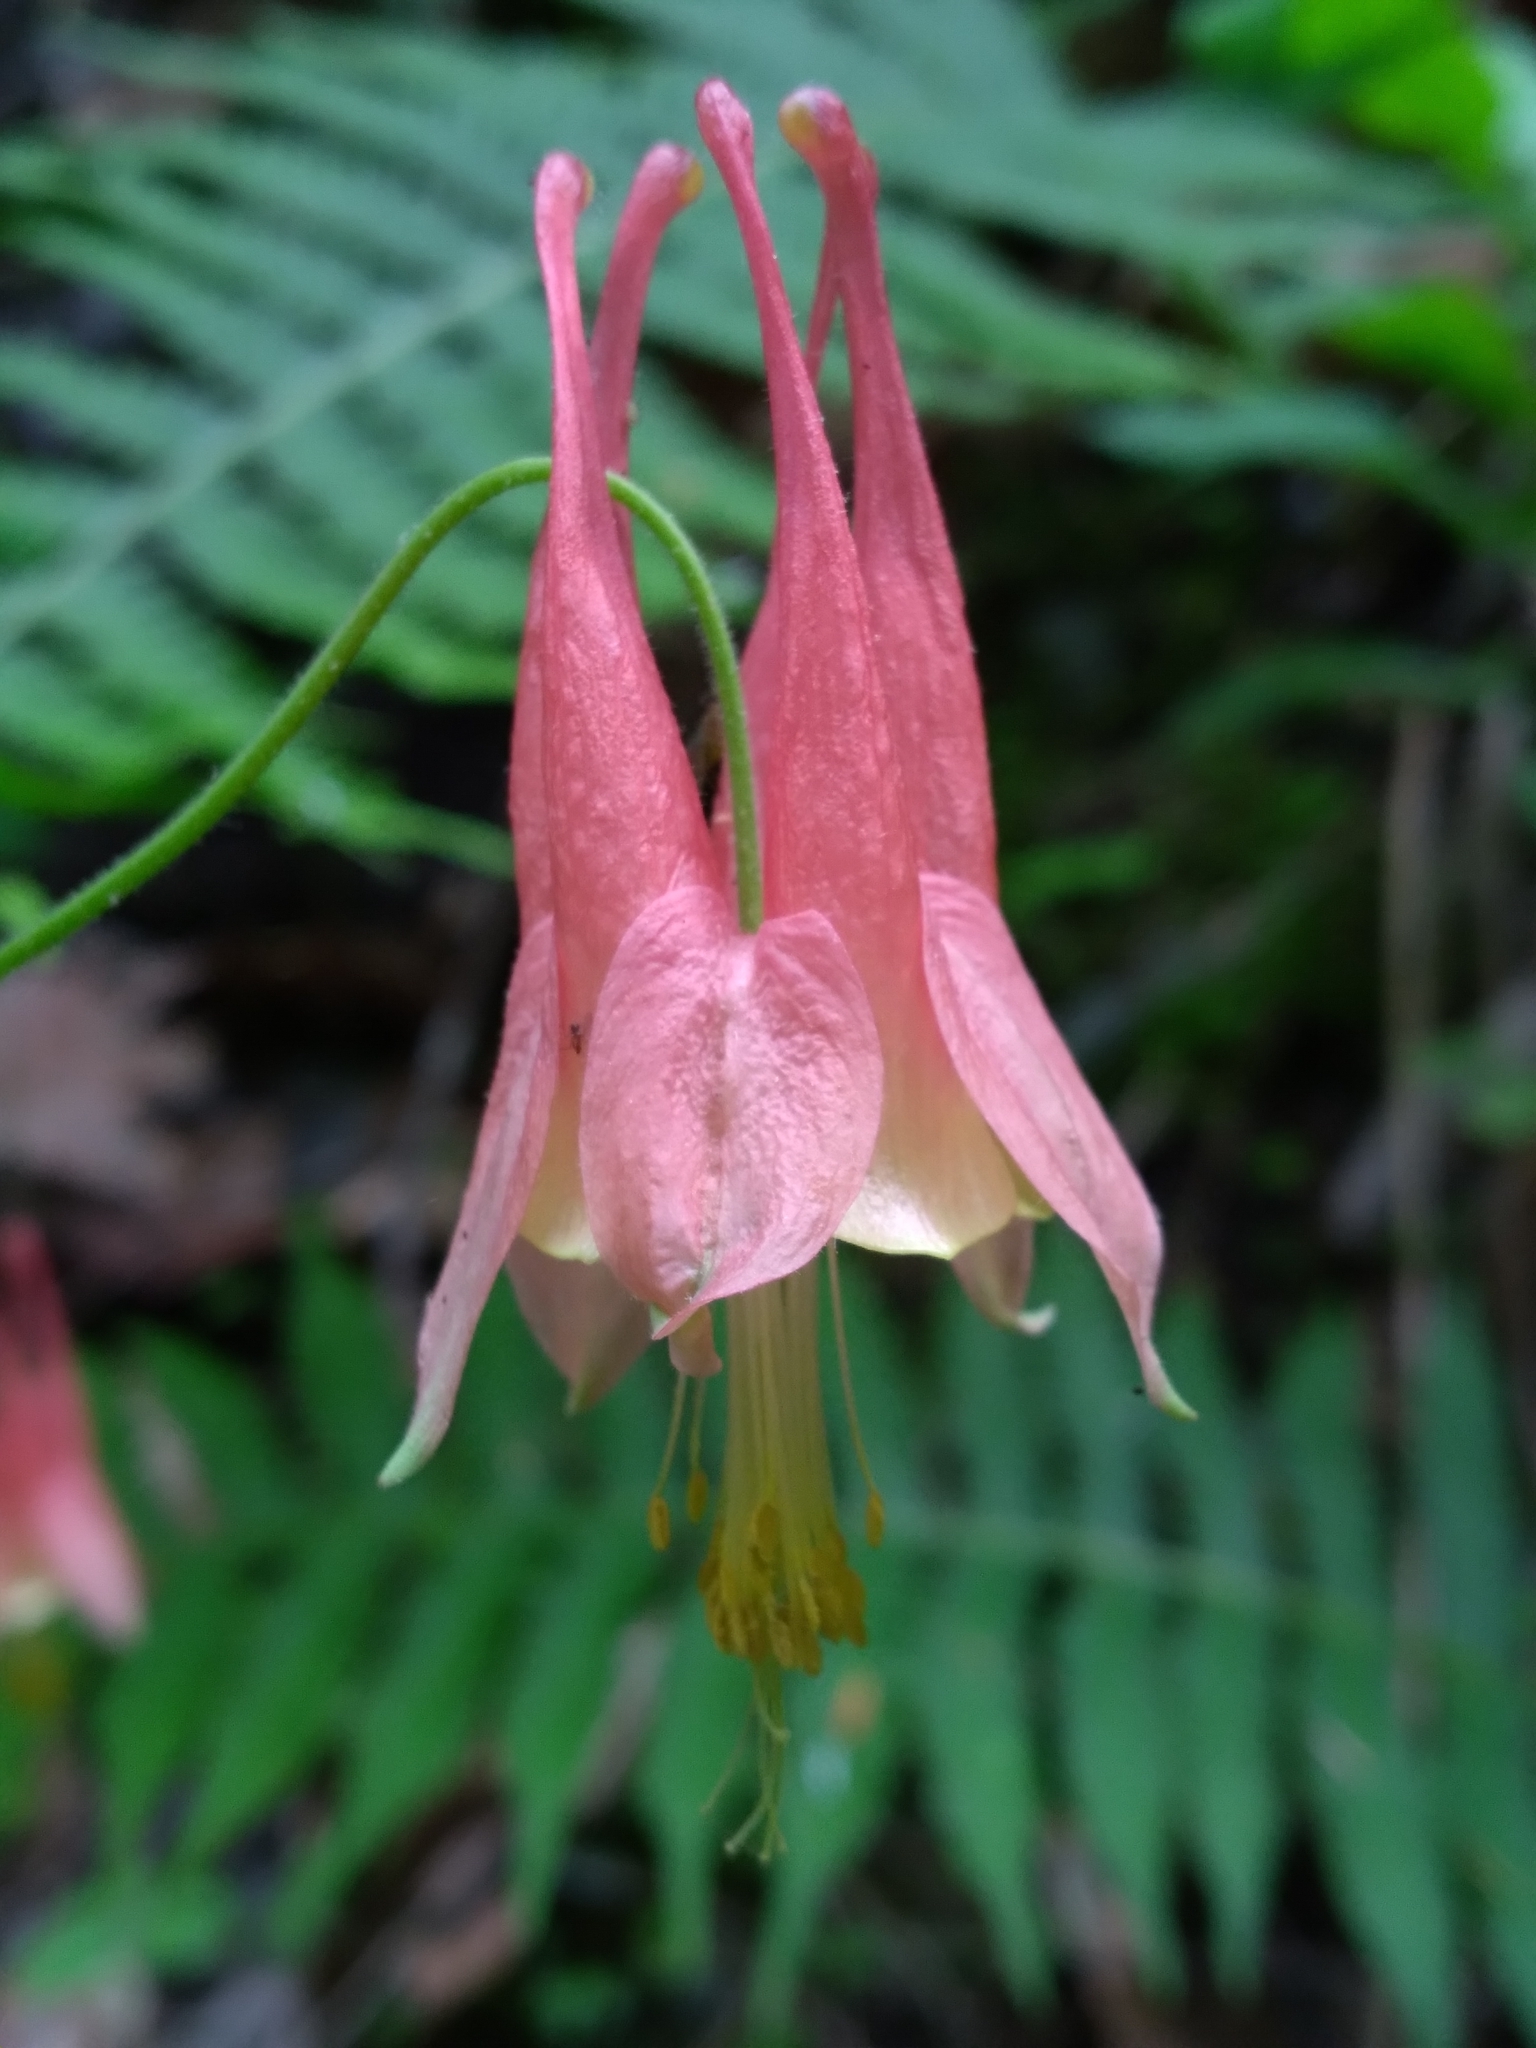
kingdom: Plantae
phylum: Tracheophyta
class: Magnoliopsida
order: Ranunculales
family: Ranunculaceae
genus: Aquilegia
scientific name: Aquilegia canadensis
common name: American columbine
